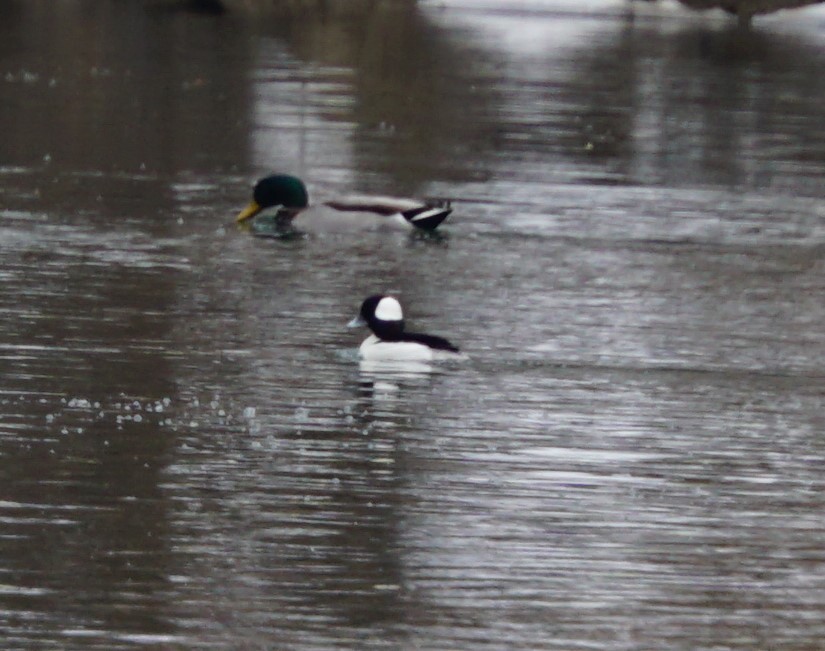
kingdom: Animalia
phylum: Chordata
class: Aves
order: Anseriformes
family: Anatidae
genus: Bucephala
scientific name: Bucephala albeola
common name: Bufflehead
